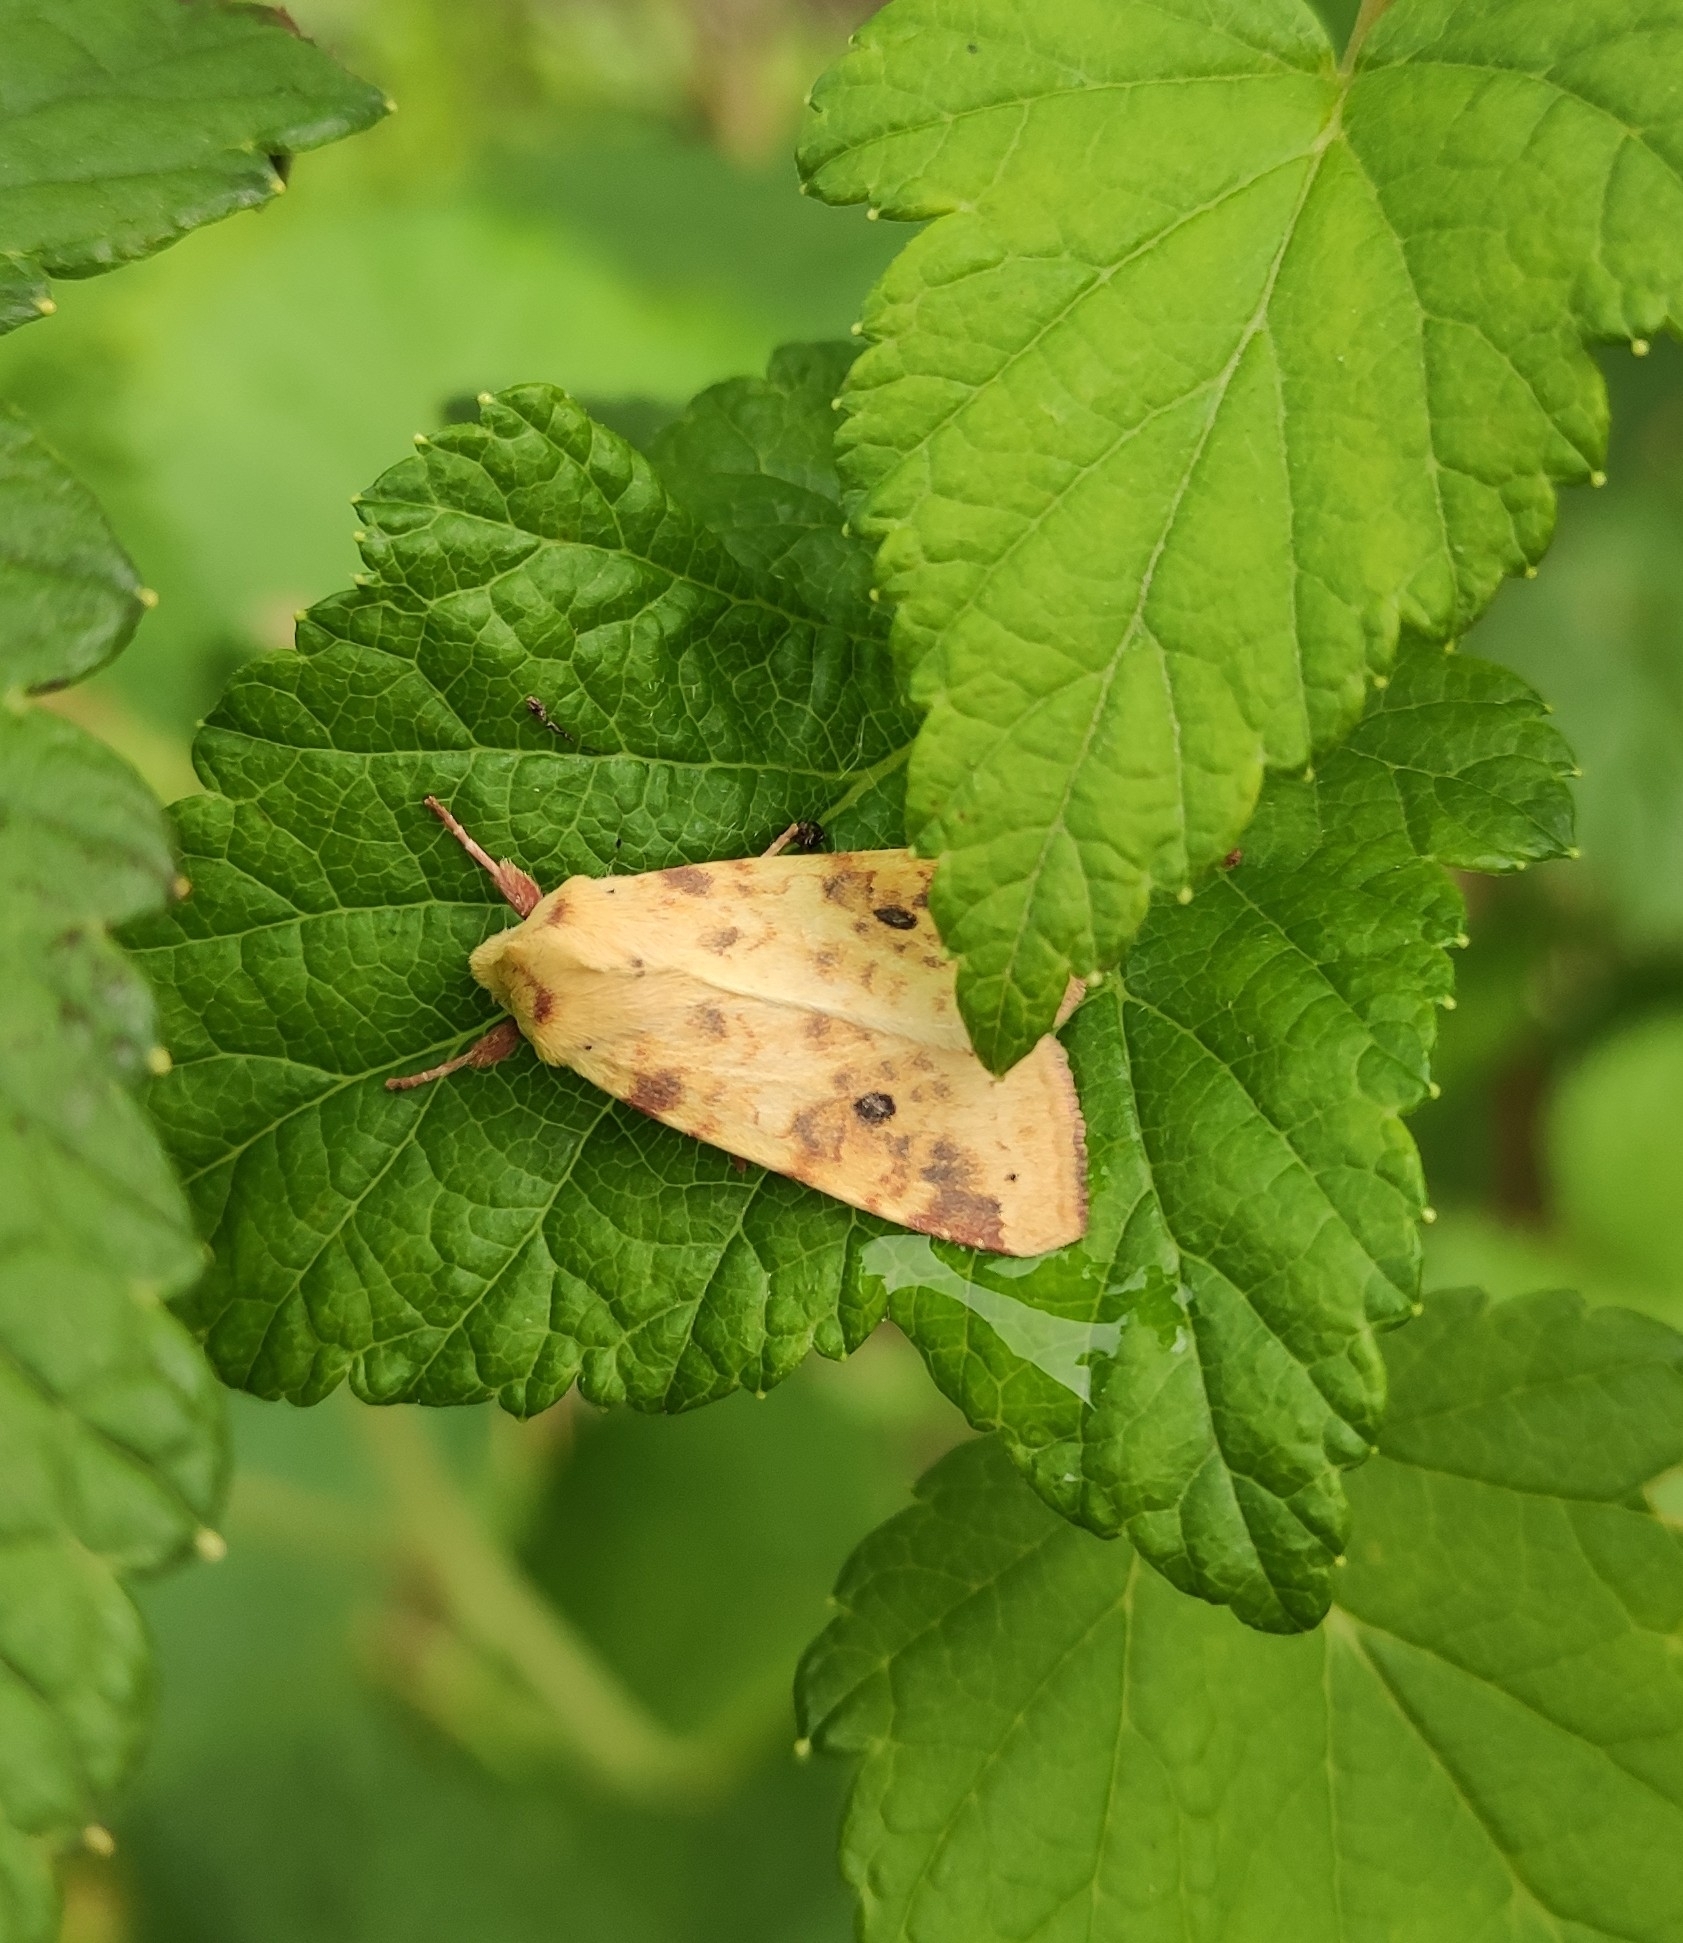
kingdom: Animalia
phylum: Arthropoda
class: Insecta
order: Lepidoptera
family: Noctuidae
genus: Xanthia
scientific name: Xanthia icteritia
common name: The sallow
